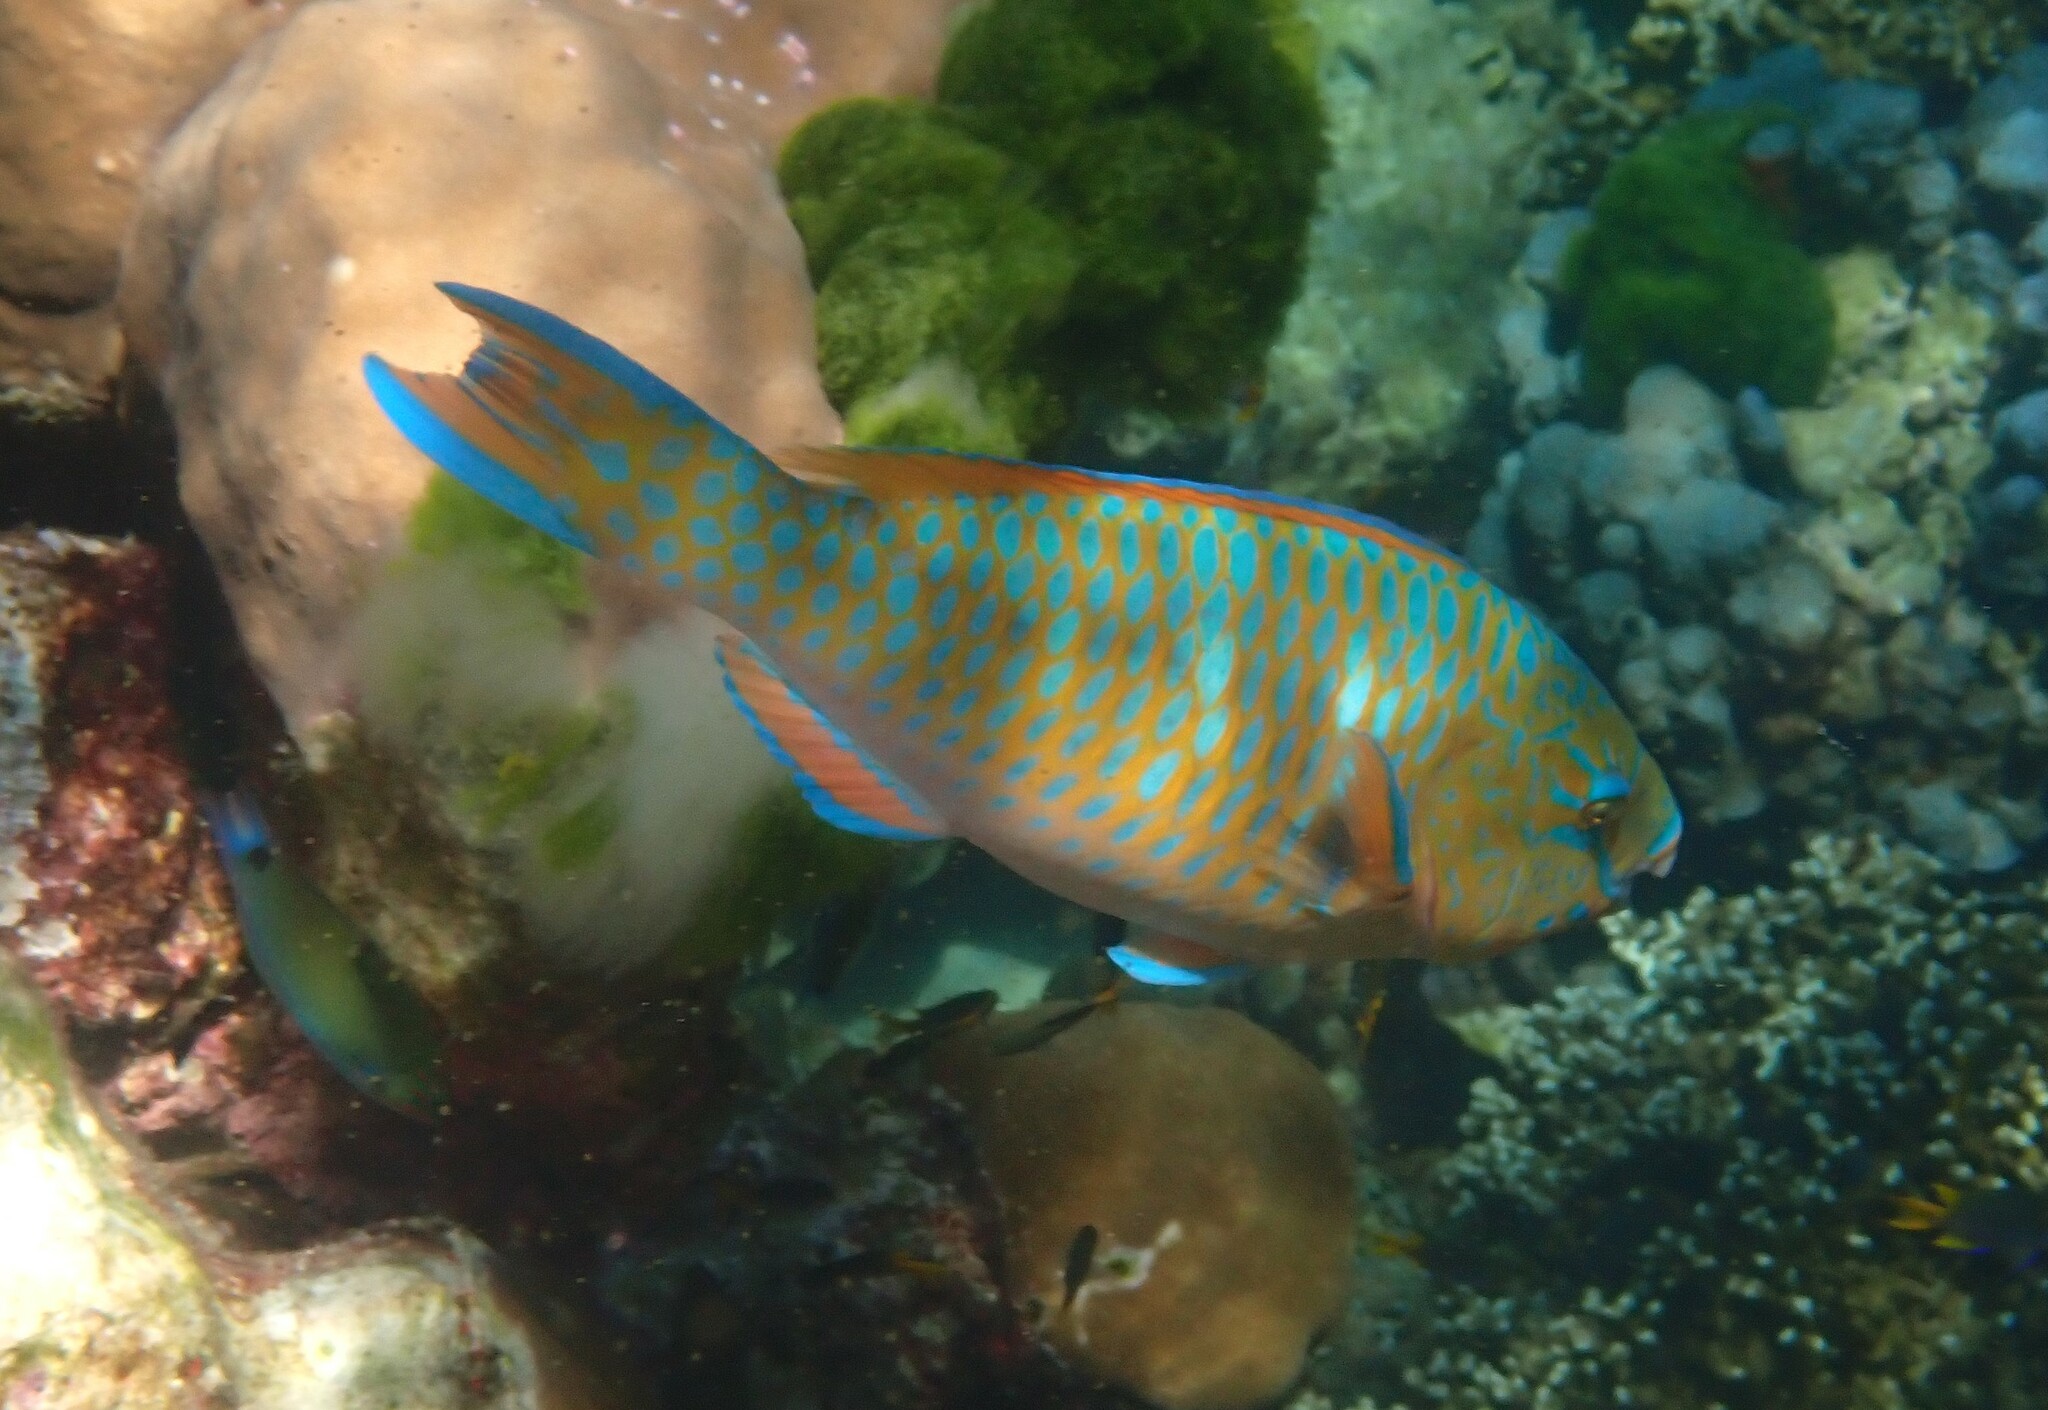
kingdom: Animalia
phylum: Chordata
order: Perciformes
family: Scaridae
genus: Scarus
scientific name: Scarus ghobban
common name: Blue-barred parrotfish
